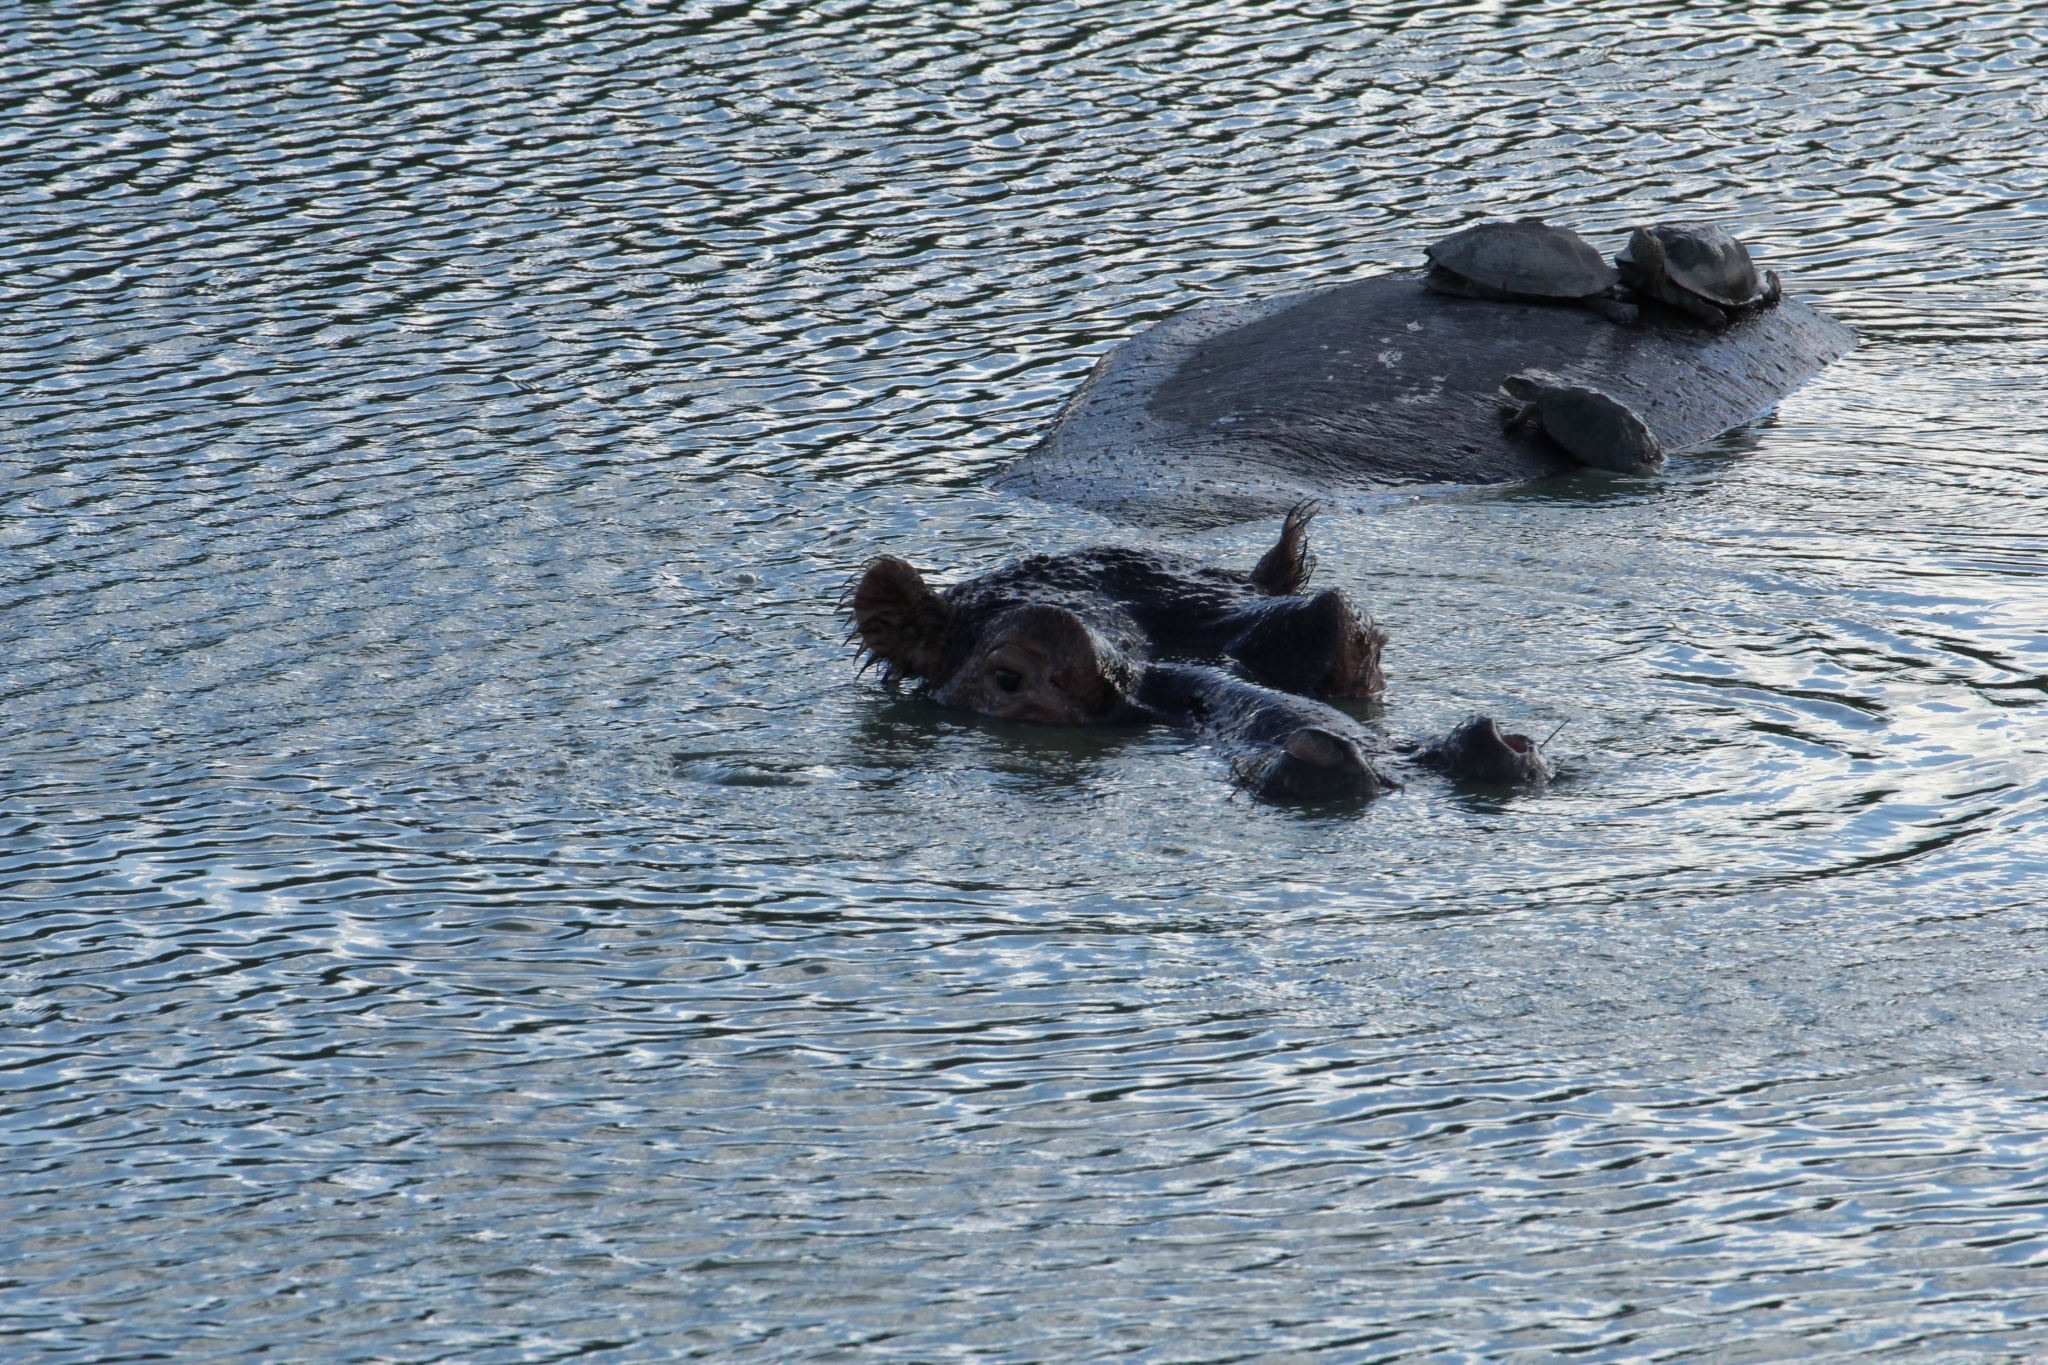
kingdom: Animalia
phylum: Chordata
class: Mammalia
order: Artiodactyla
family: Hippopotamidae
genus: Hippopotamus
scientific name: Hippopotamus amphibius
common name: Common hippopotamus
